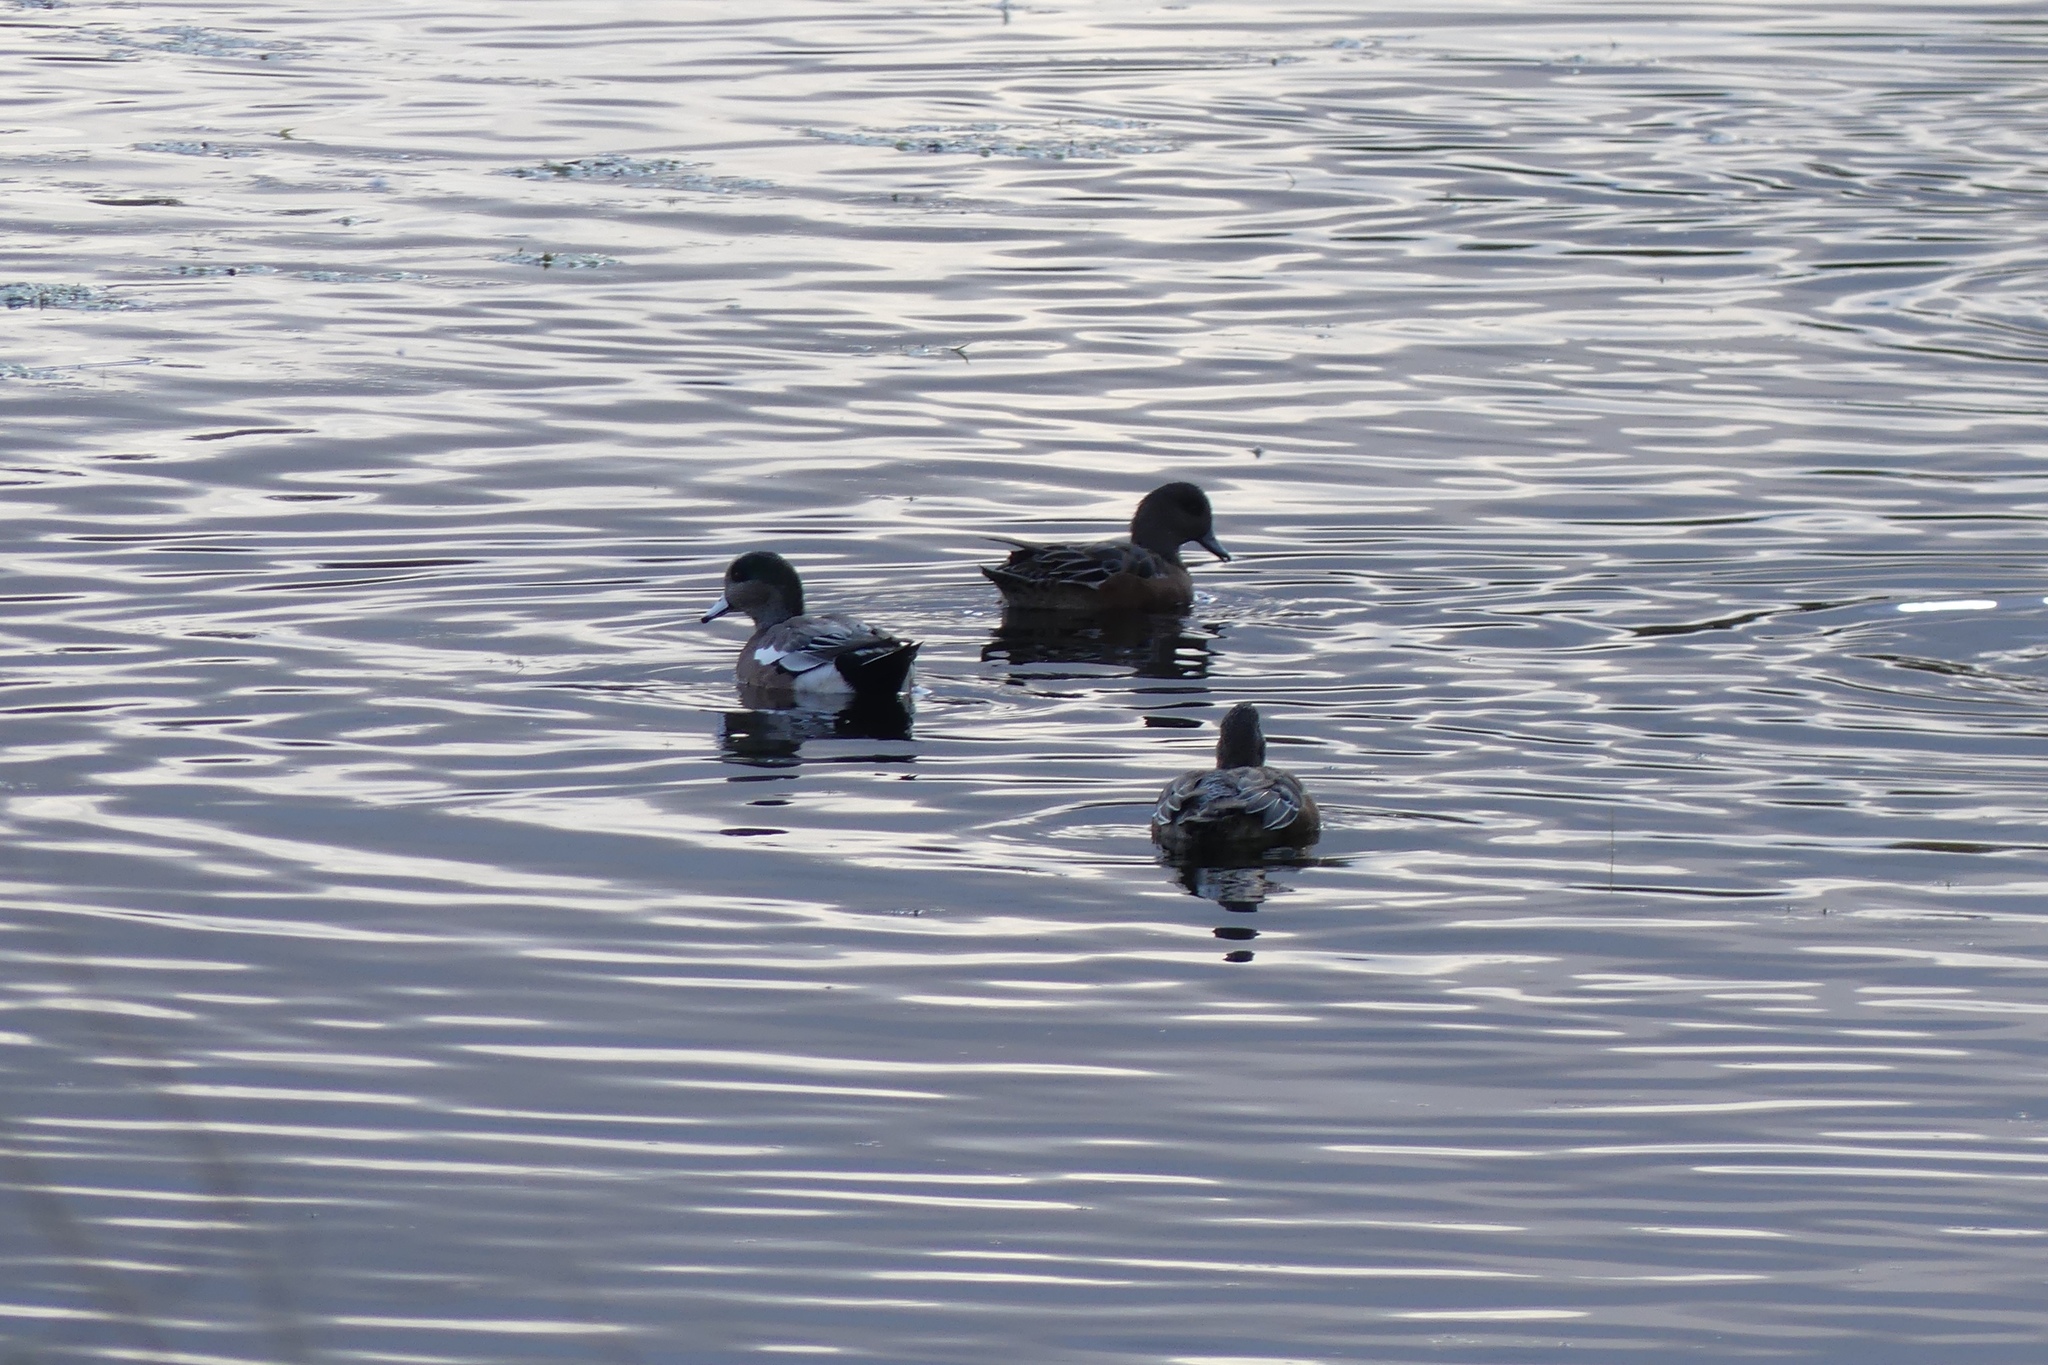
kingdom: Animalia
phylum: Chordata
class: Aves
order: Anseriformes
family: Anatidae
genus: Mareca
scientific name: Mareca americana
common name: American wigeon
